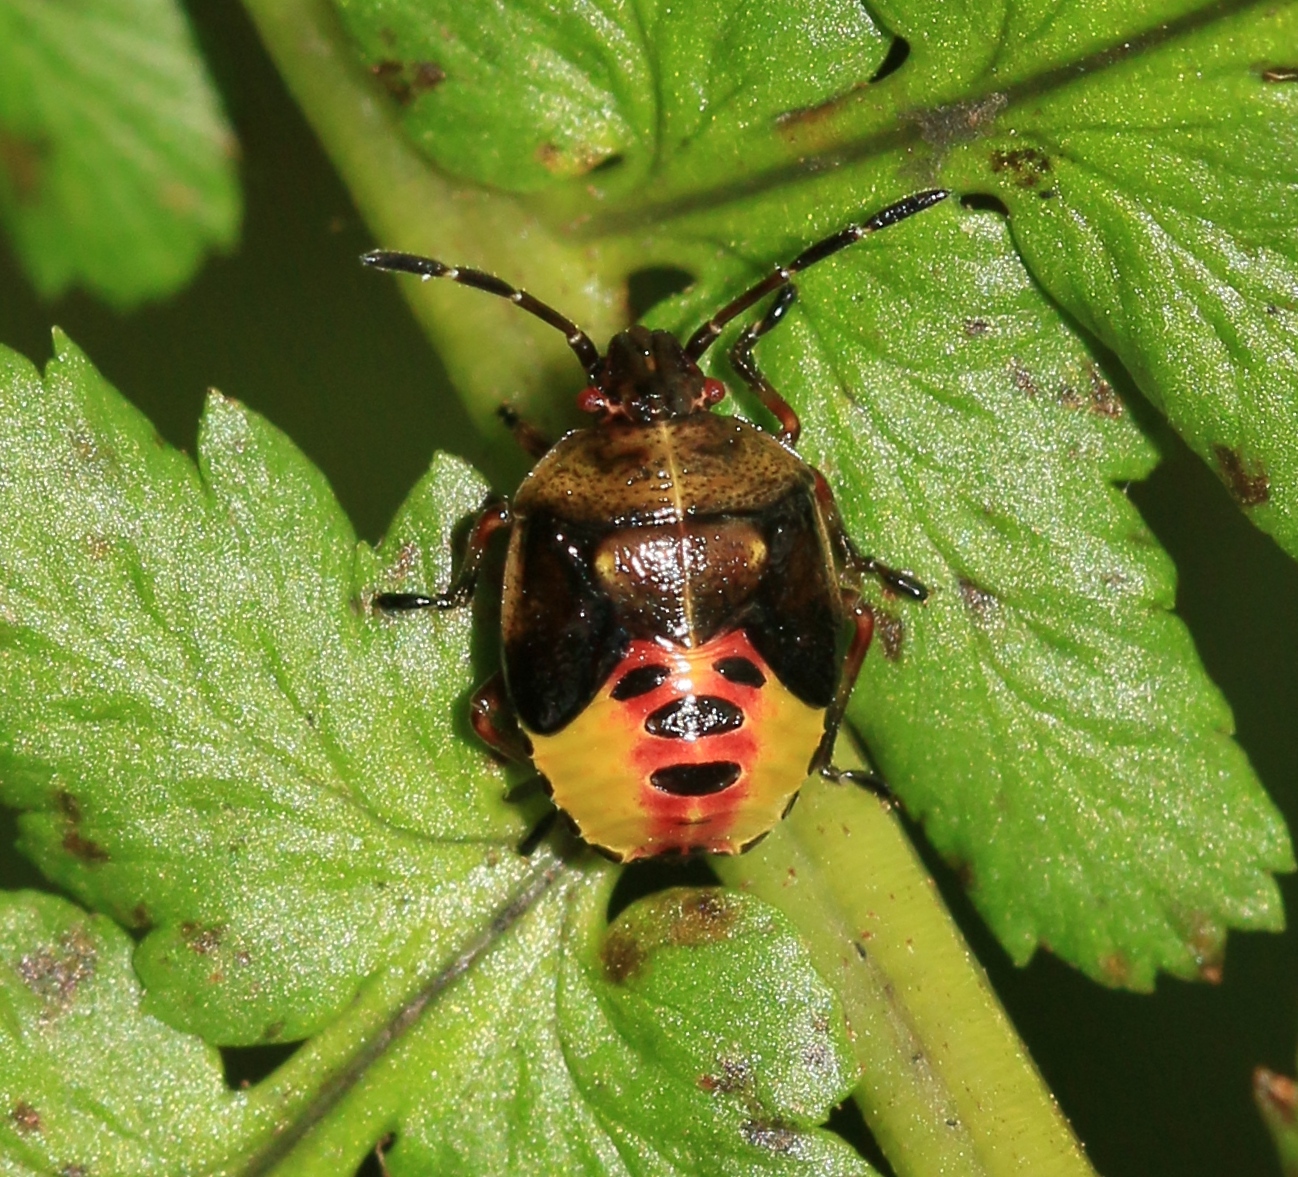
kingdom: Animalia
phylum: Arthropoda
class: Insecta
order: Hemiptera
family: Acanthosomatidae
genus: Elasmostethus
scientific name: Elasmostethus interstinctus
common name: Birch shieldbug
